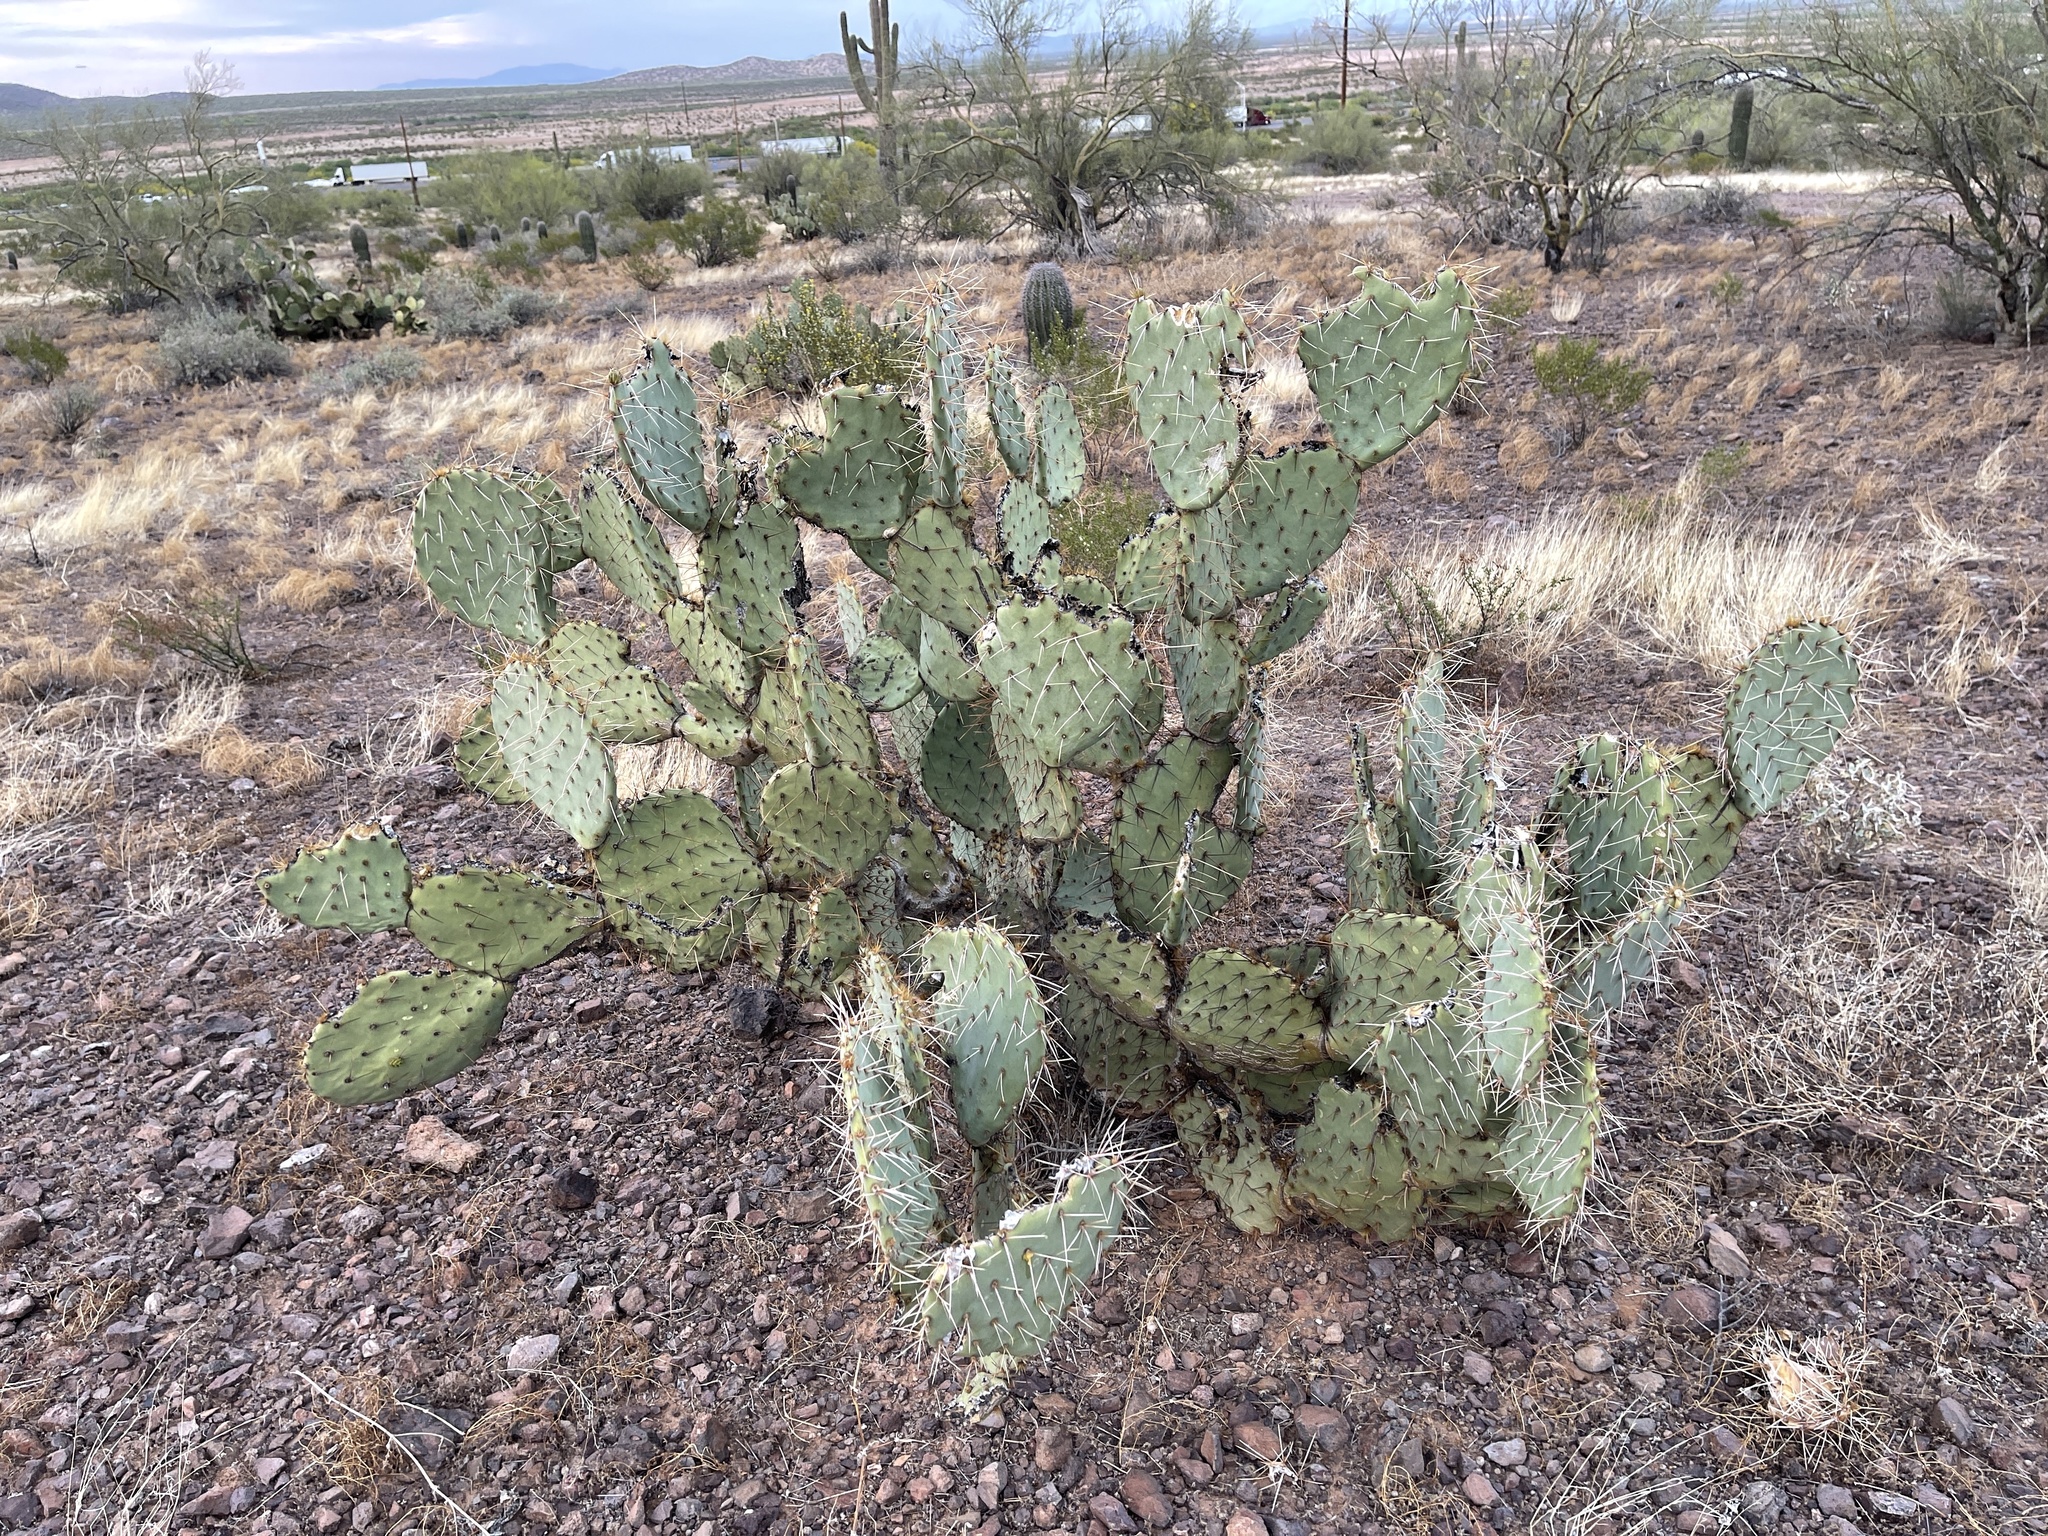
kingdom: Plantae
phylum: Tracheophyta
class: Magnoliopsida
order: Caryophyllales
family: Cactaceae
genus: Opuntia
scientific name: Opuntia engelmannii
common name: Cactus-apple
